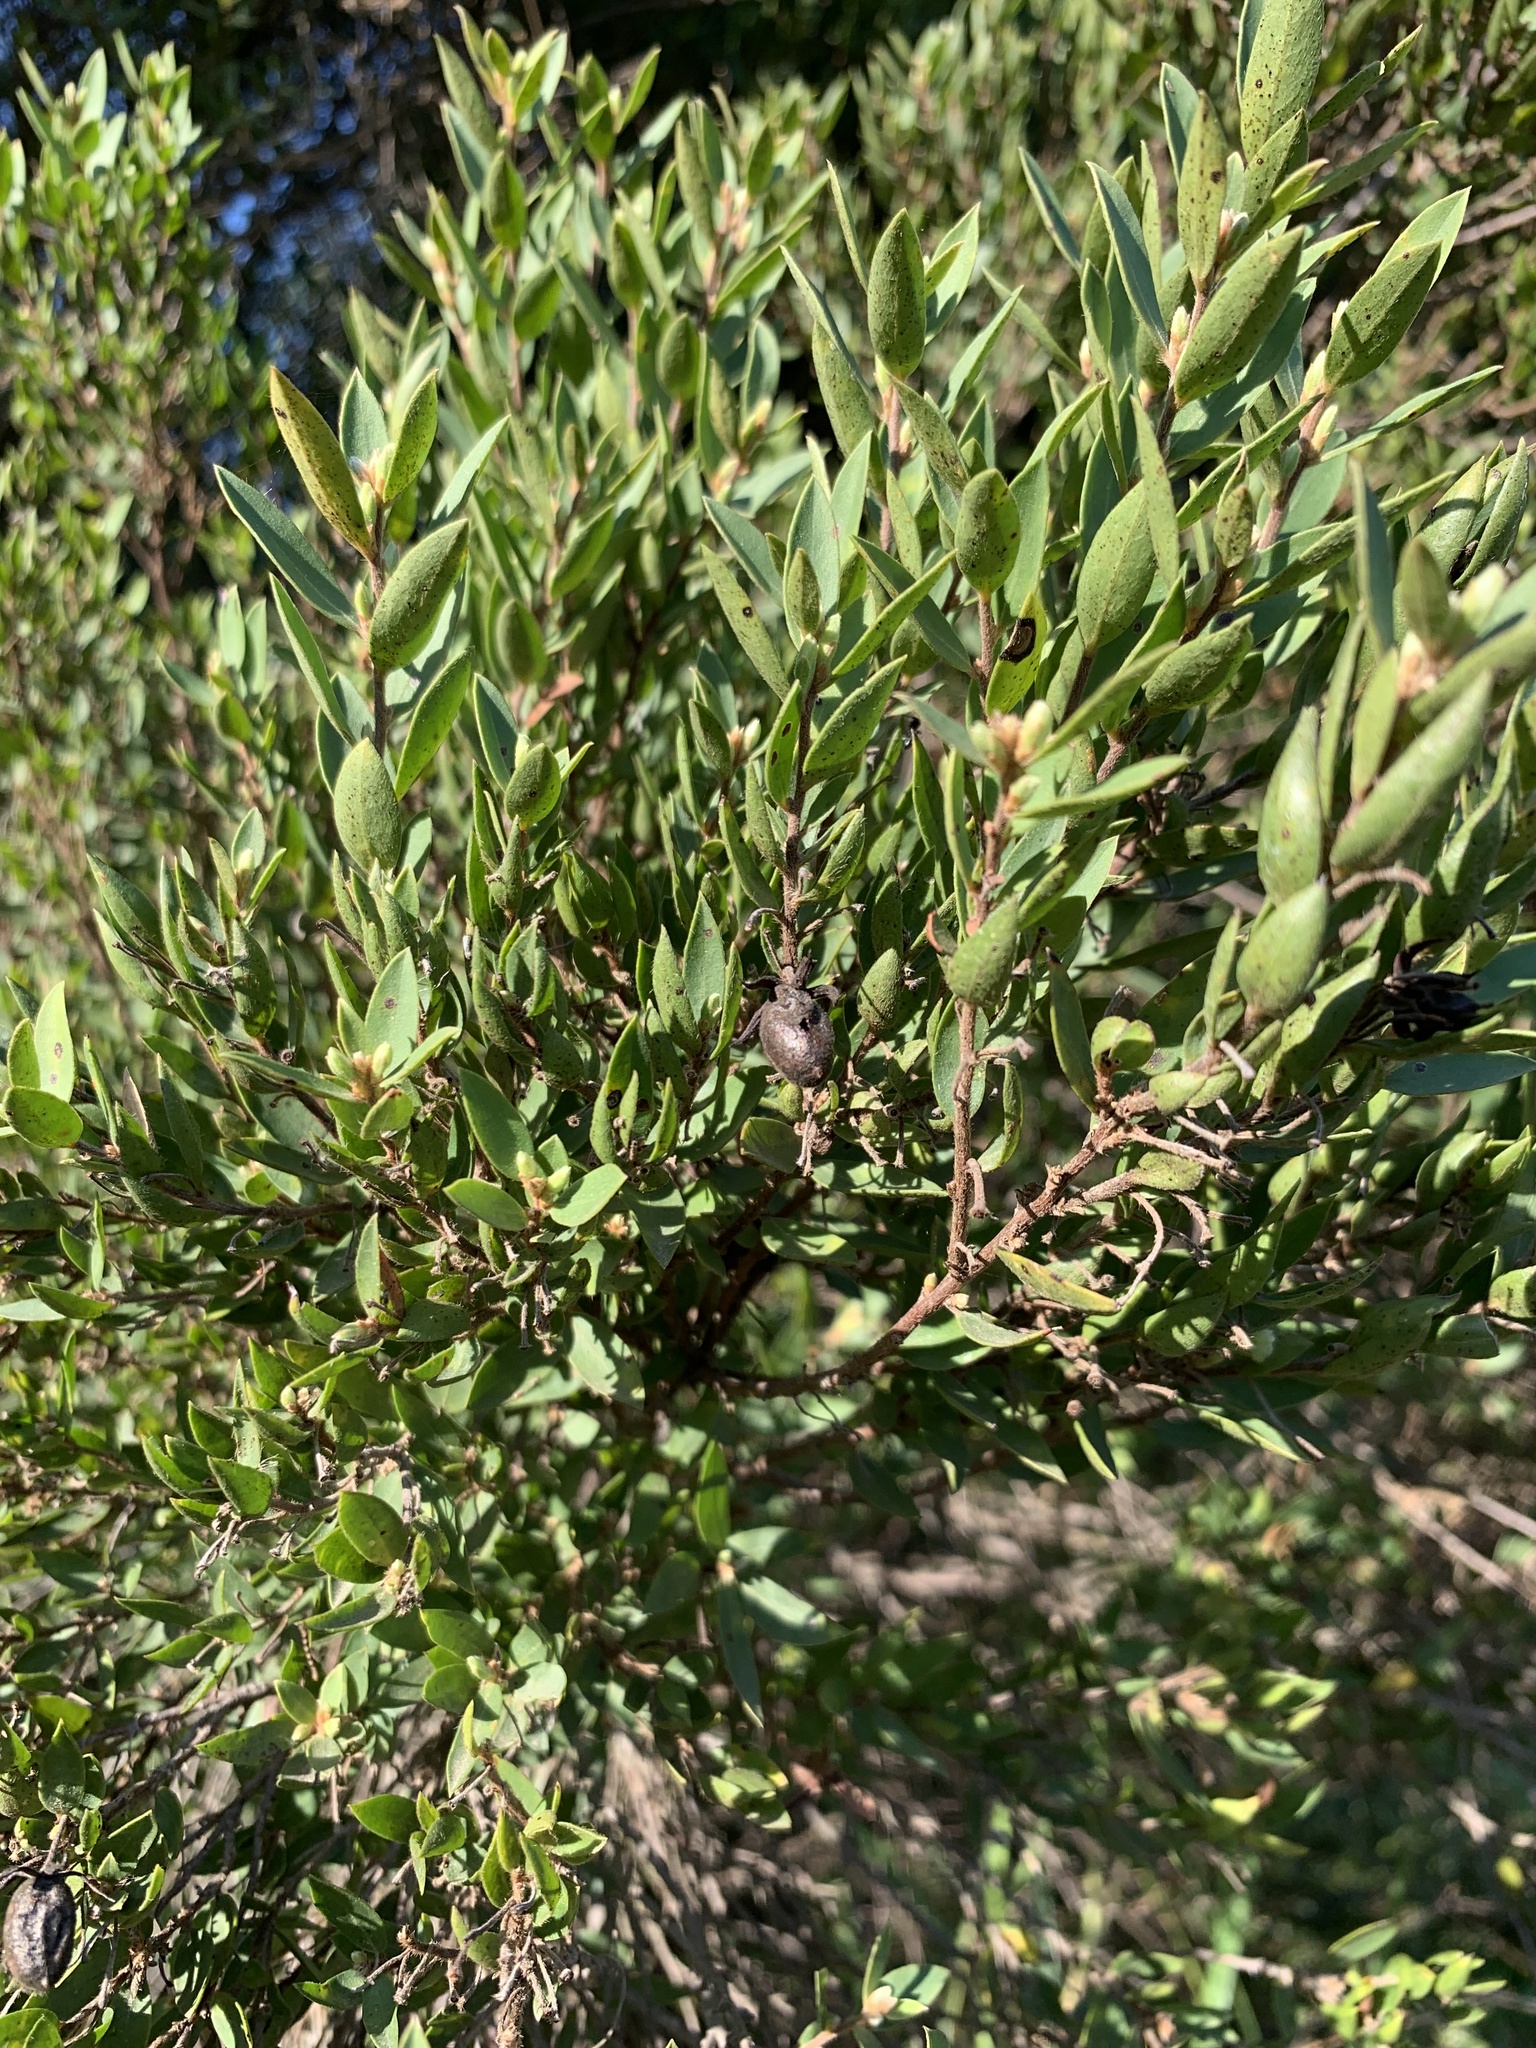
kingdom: Plantae
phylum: Tracheophyta
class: Magnoliopsida
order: Ericales
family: Ebenaceae
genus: Diospyros
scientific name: Diospyros glabra
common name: Fynbos star apple
